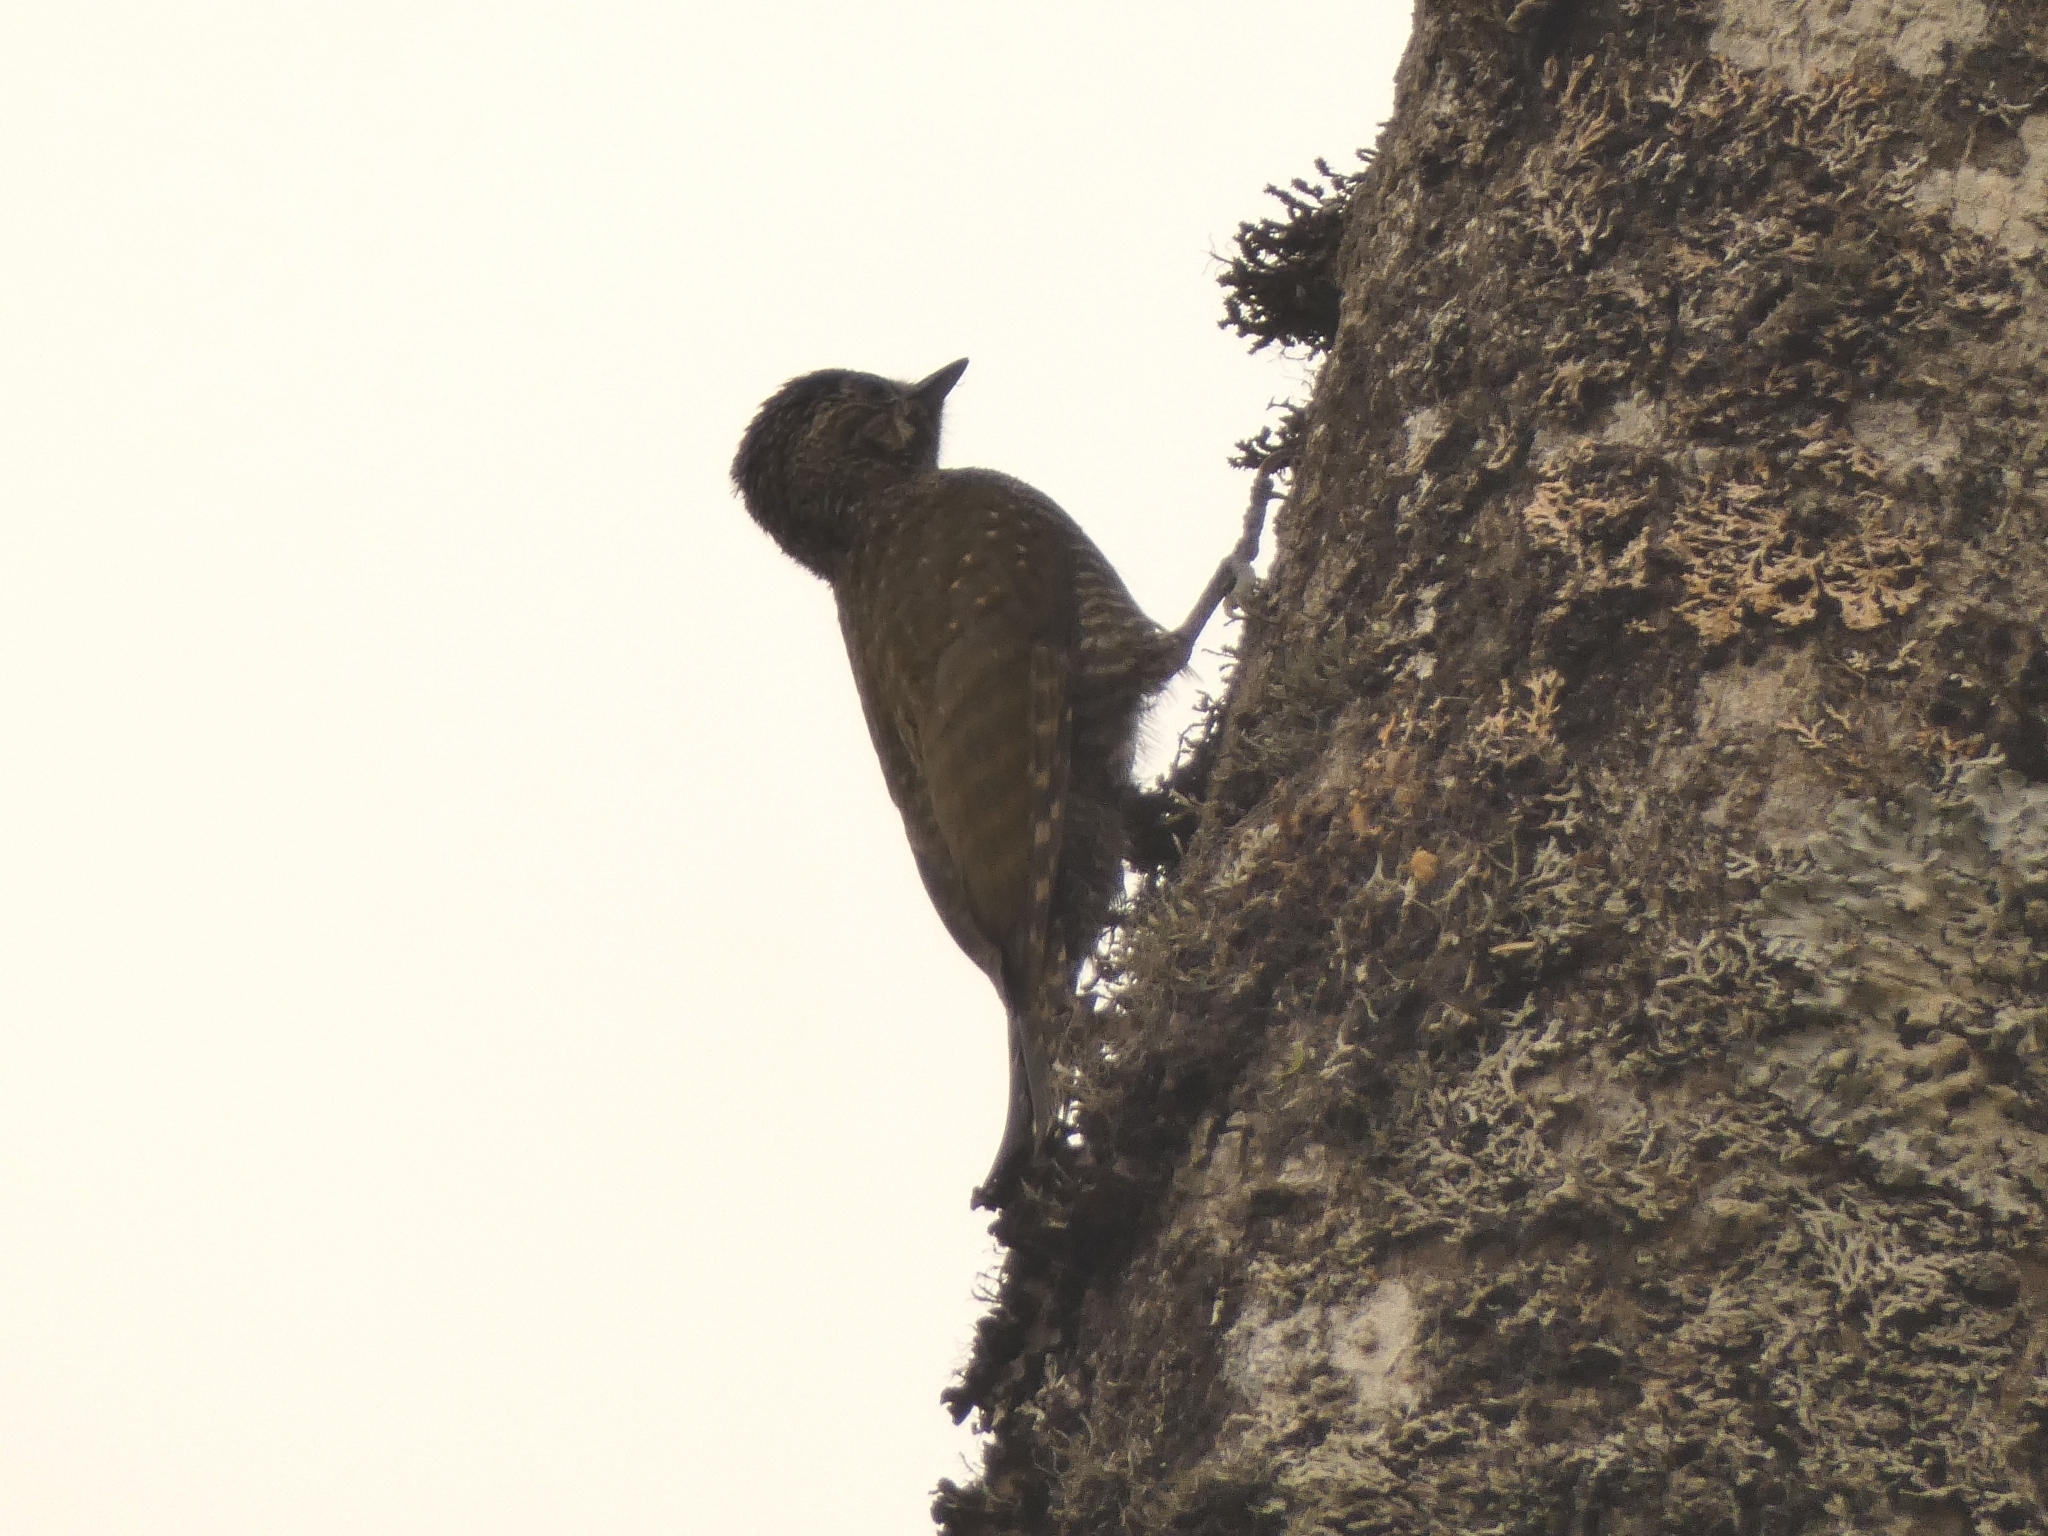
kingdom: Animalia
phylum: Chordata
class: Aves
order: Piciformes
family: Picidae
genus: Veniliornis
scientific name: Veniliornis frontalis
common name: Dot-fronted woodpecker
